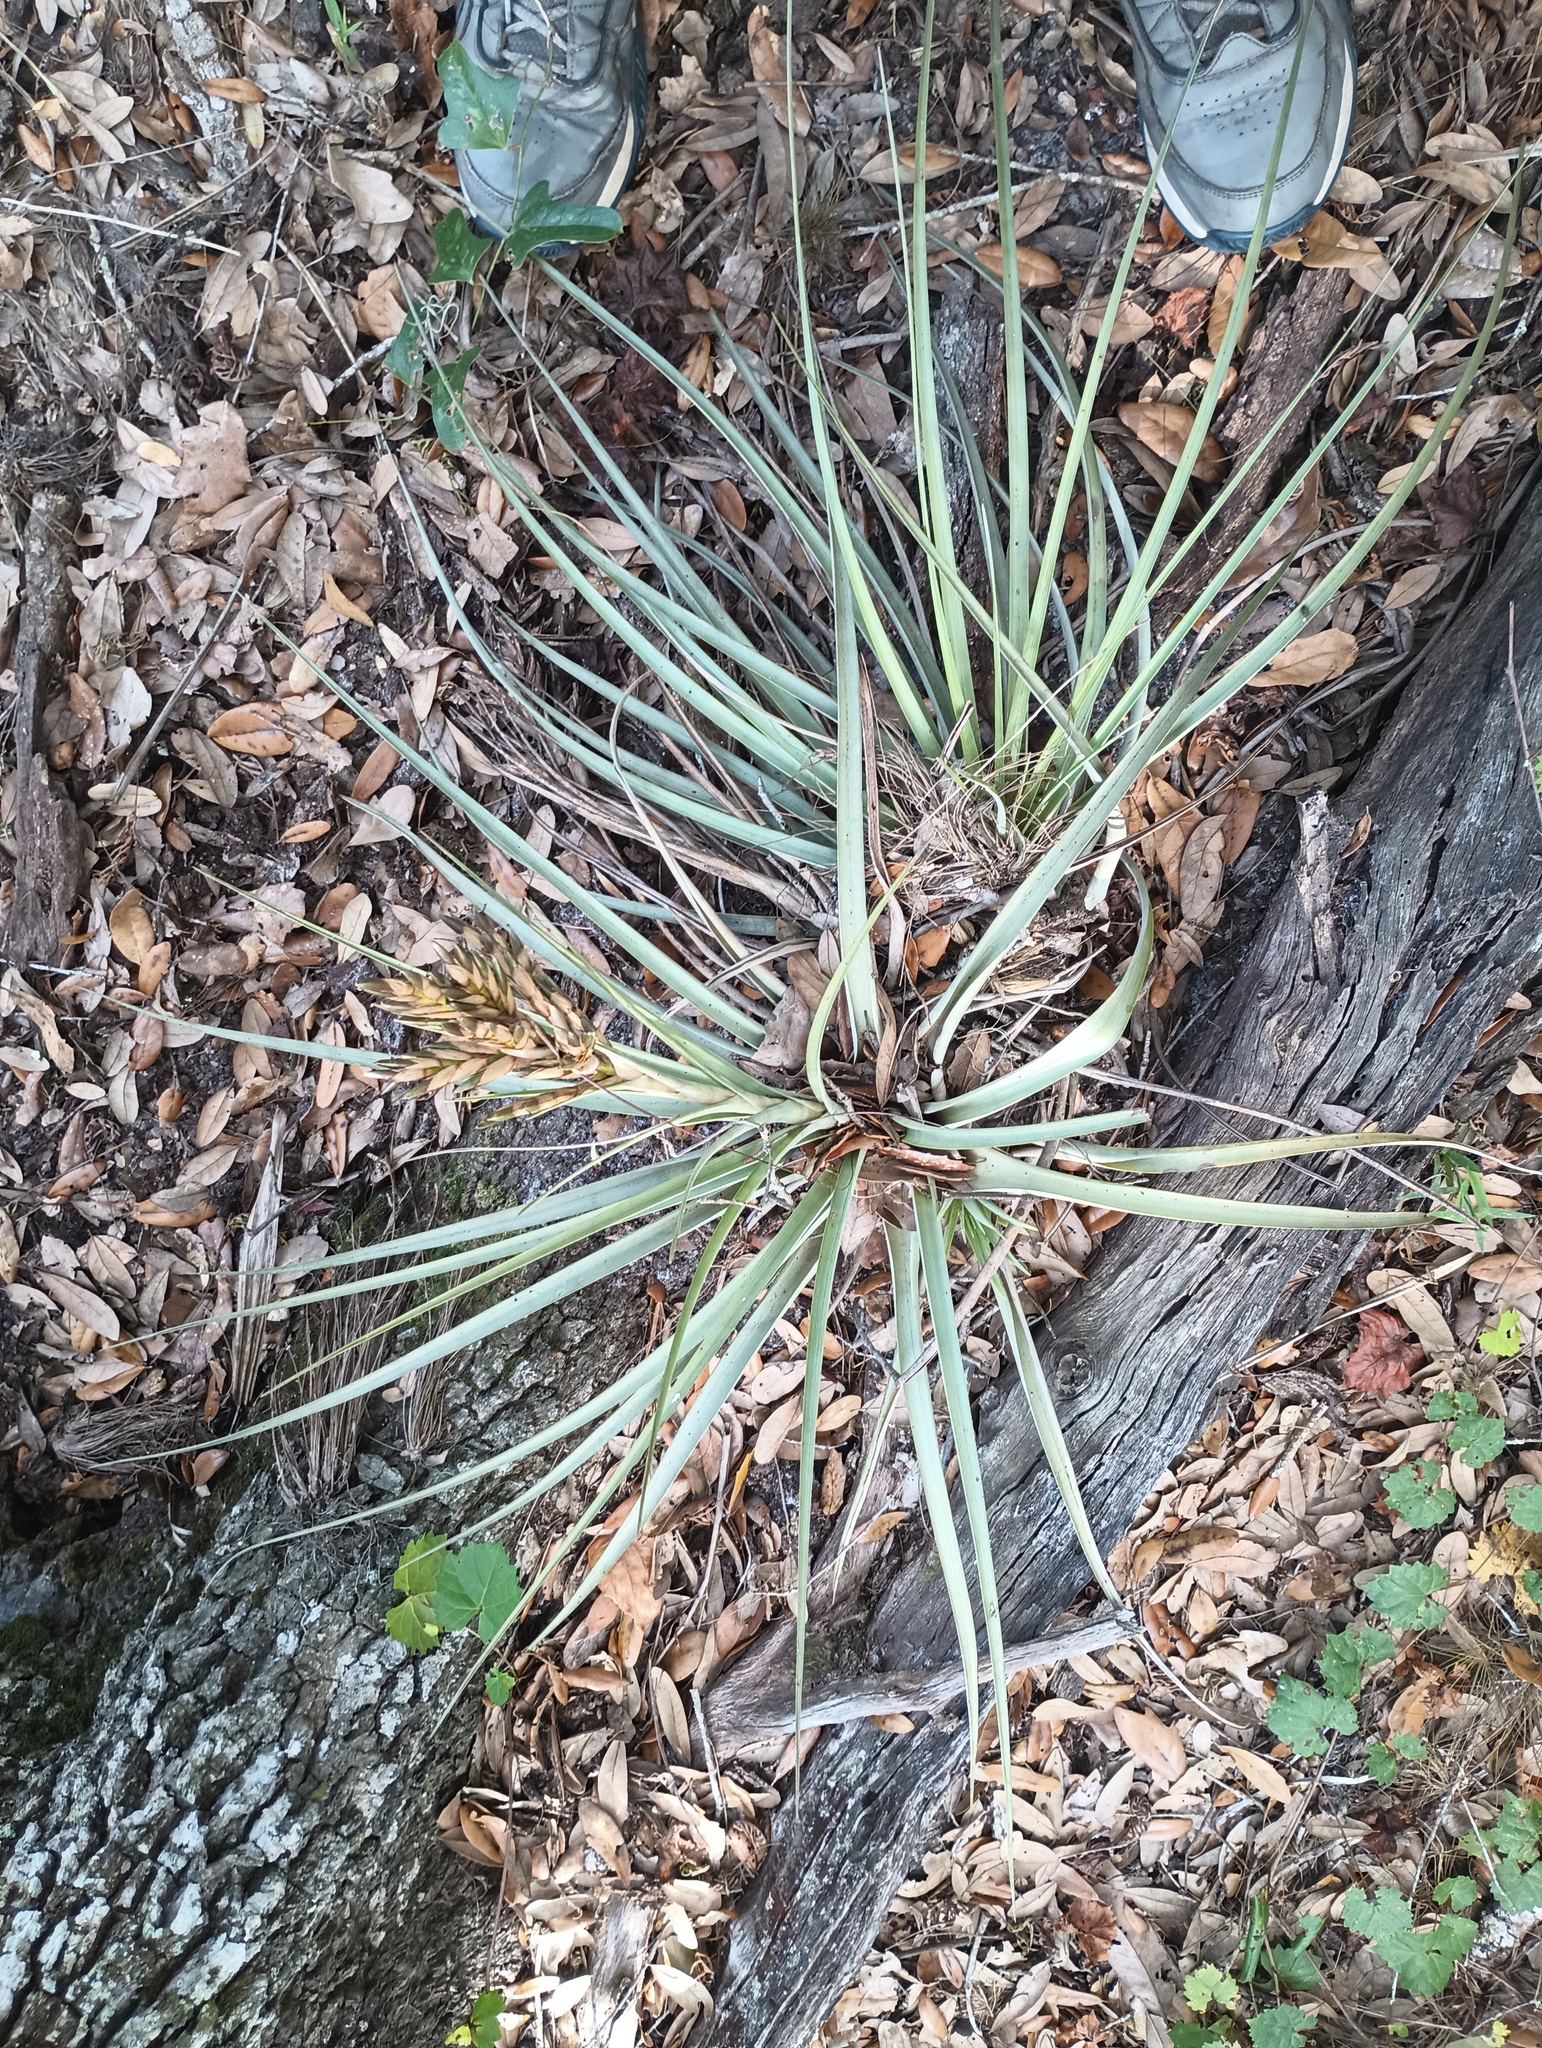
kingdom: Plantae
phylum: Tracheophyta
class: Liliopsida
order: Poales
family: Bromeliaceae
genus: Tillandsia
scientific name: Tillandsia fasciculata
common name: Giant airplant
